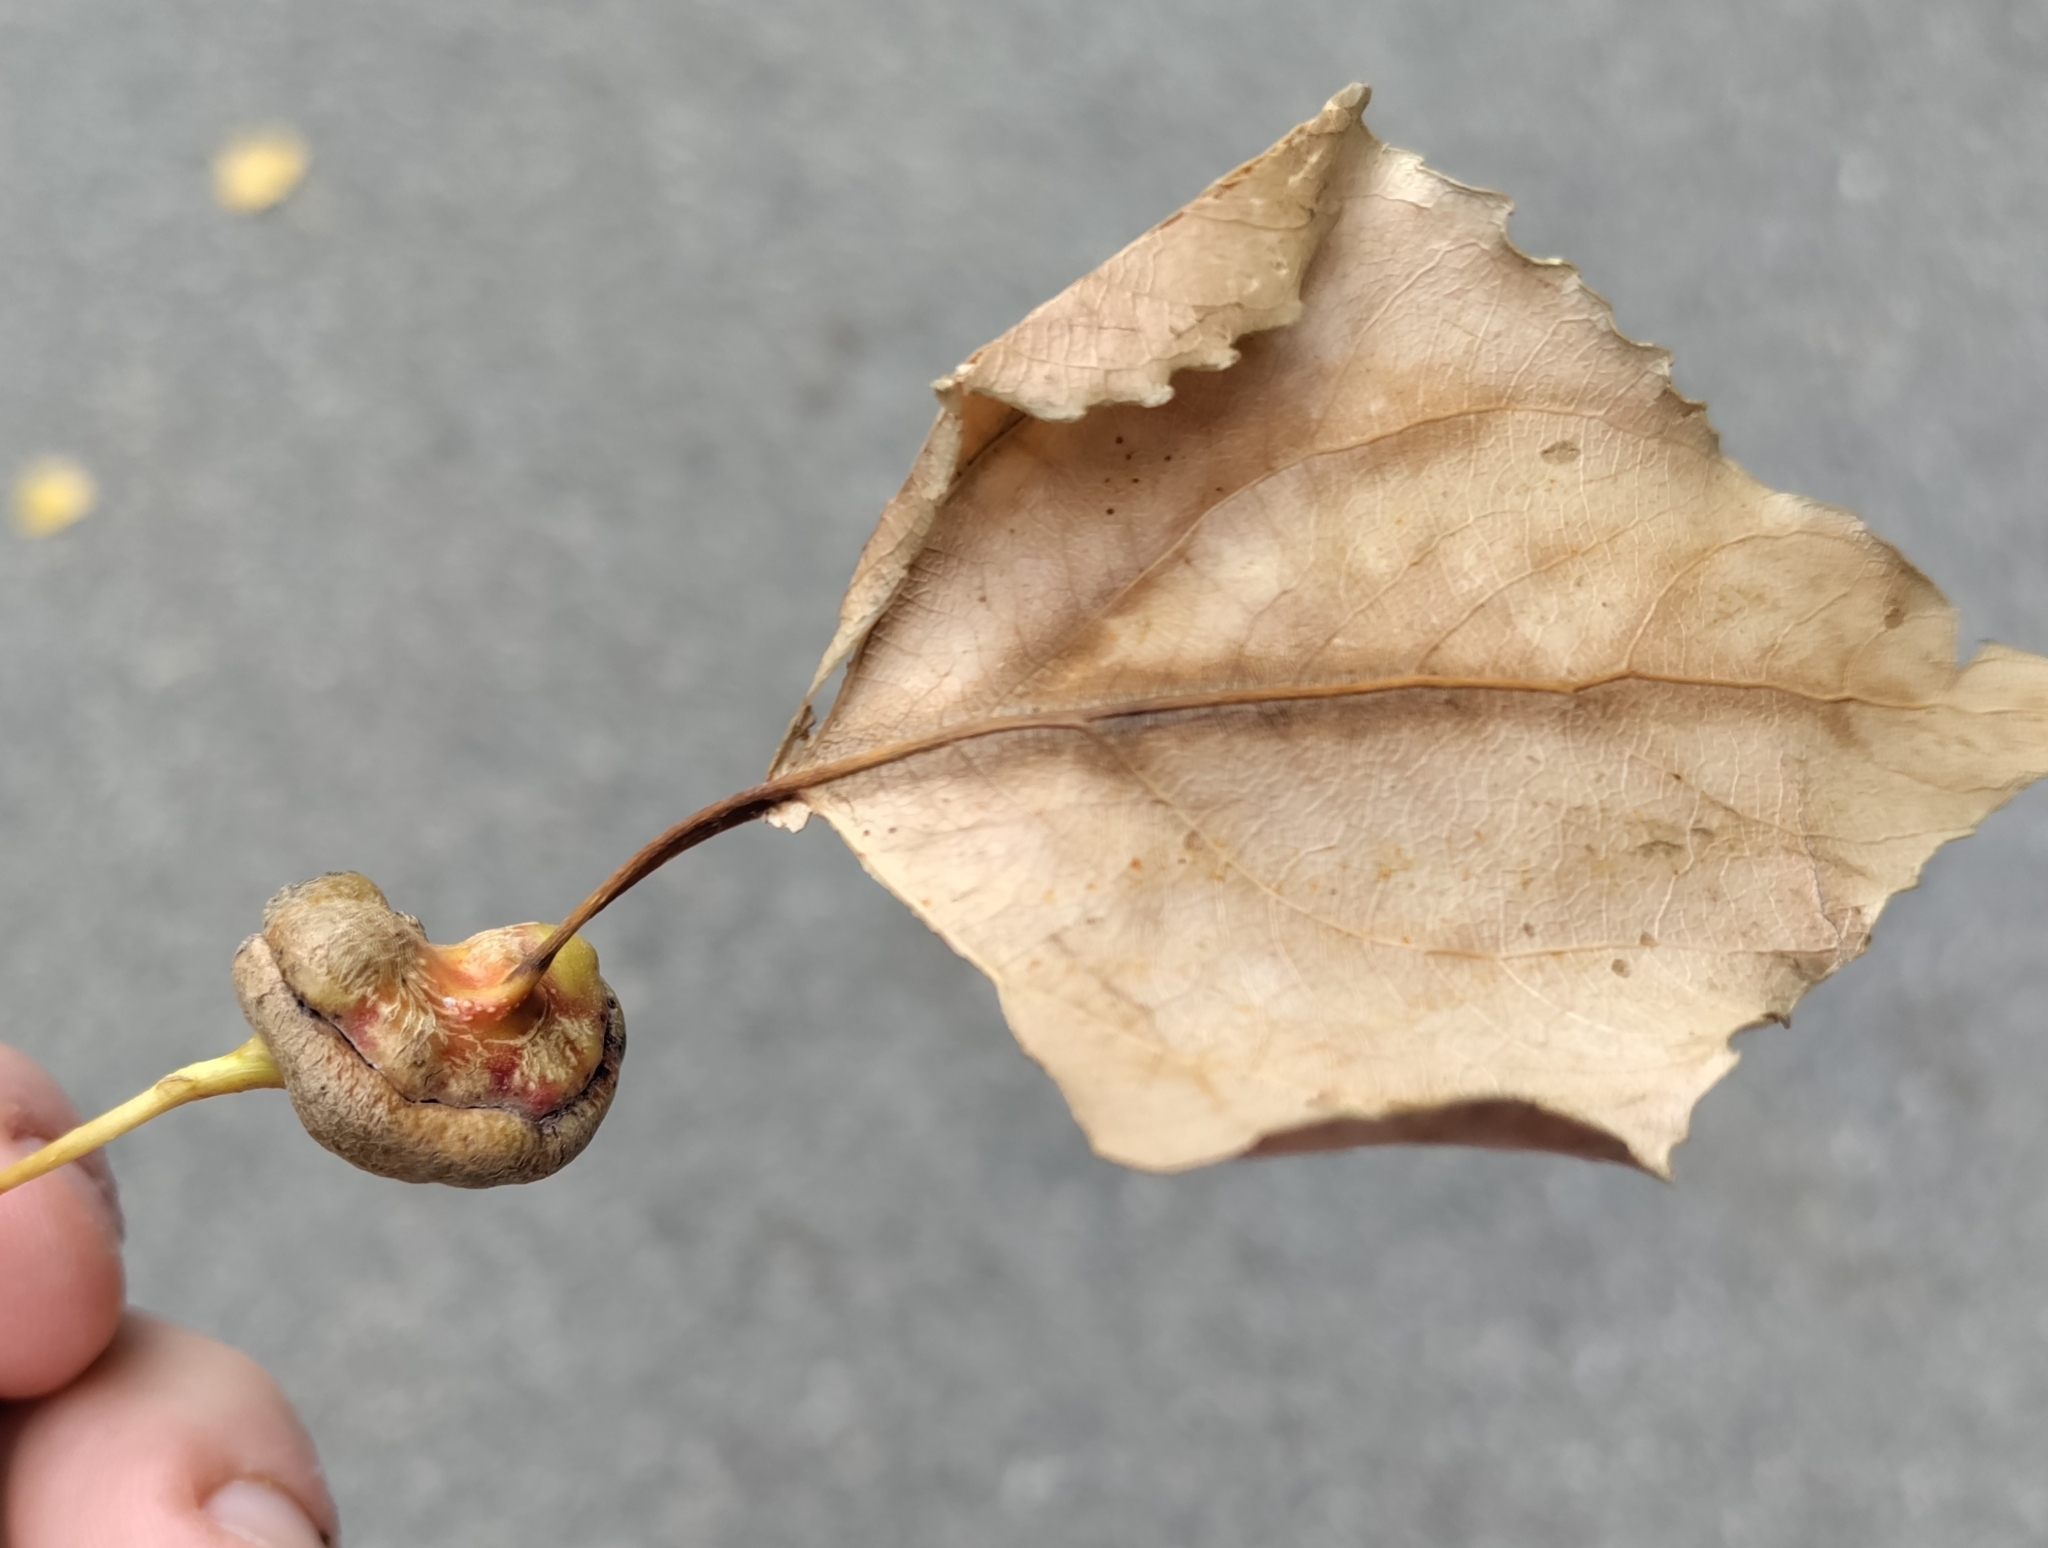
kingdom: Animalia
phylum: Arthropoda
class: Insecta
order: Hemiptera
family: Aphididae
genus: Pemphigus
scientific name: Pemphigus spyrothecae
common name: Aphid
